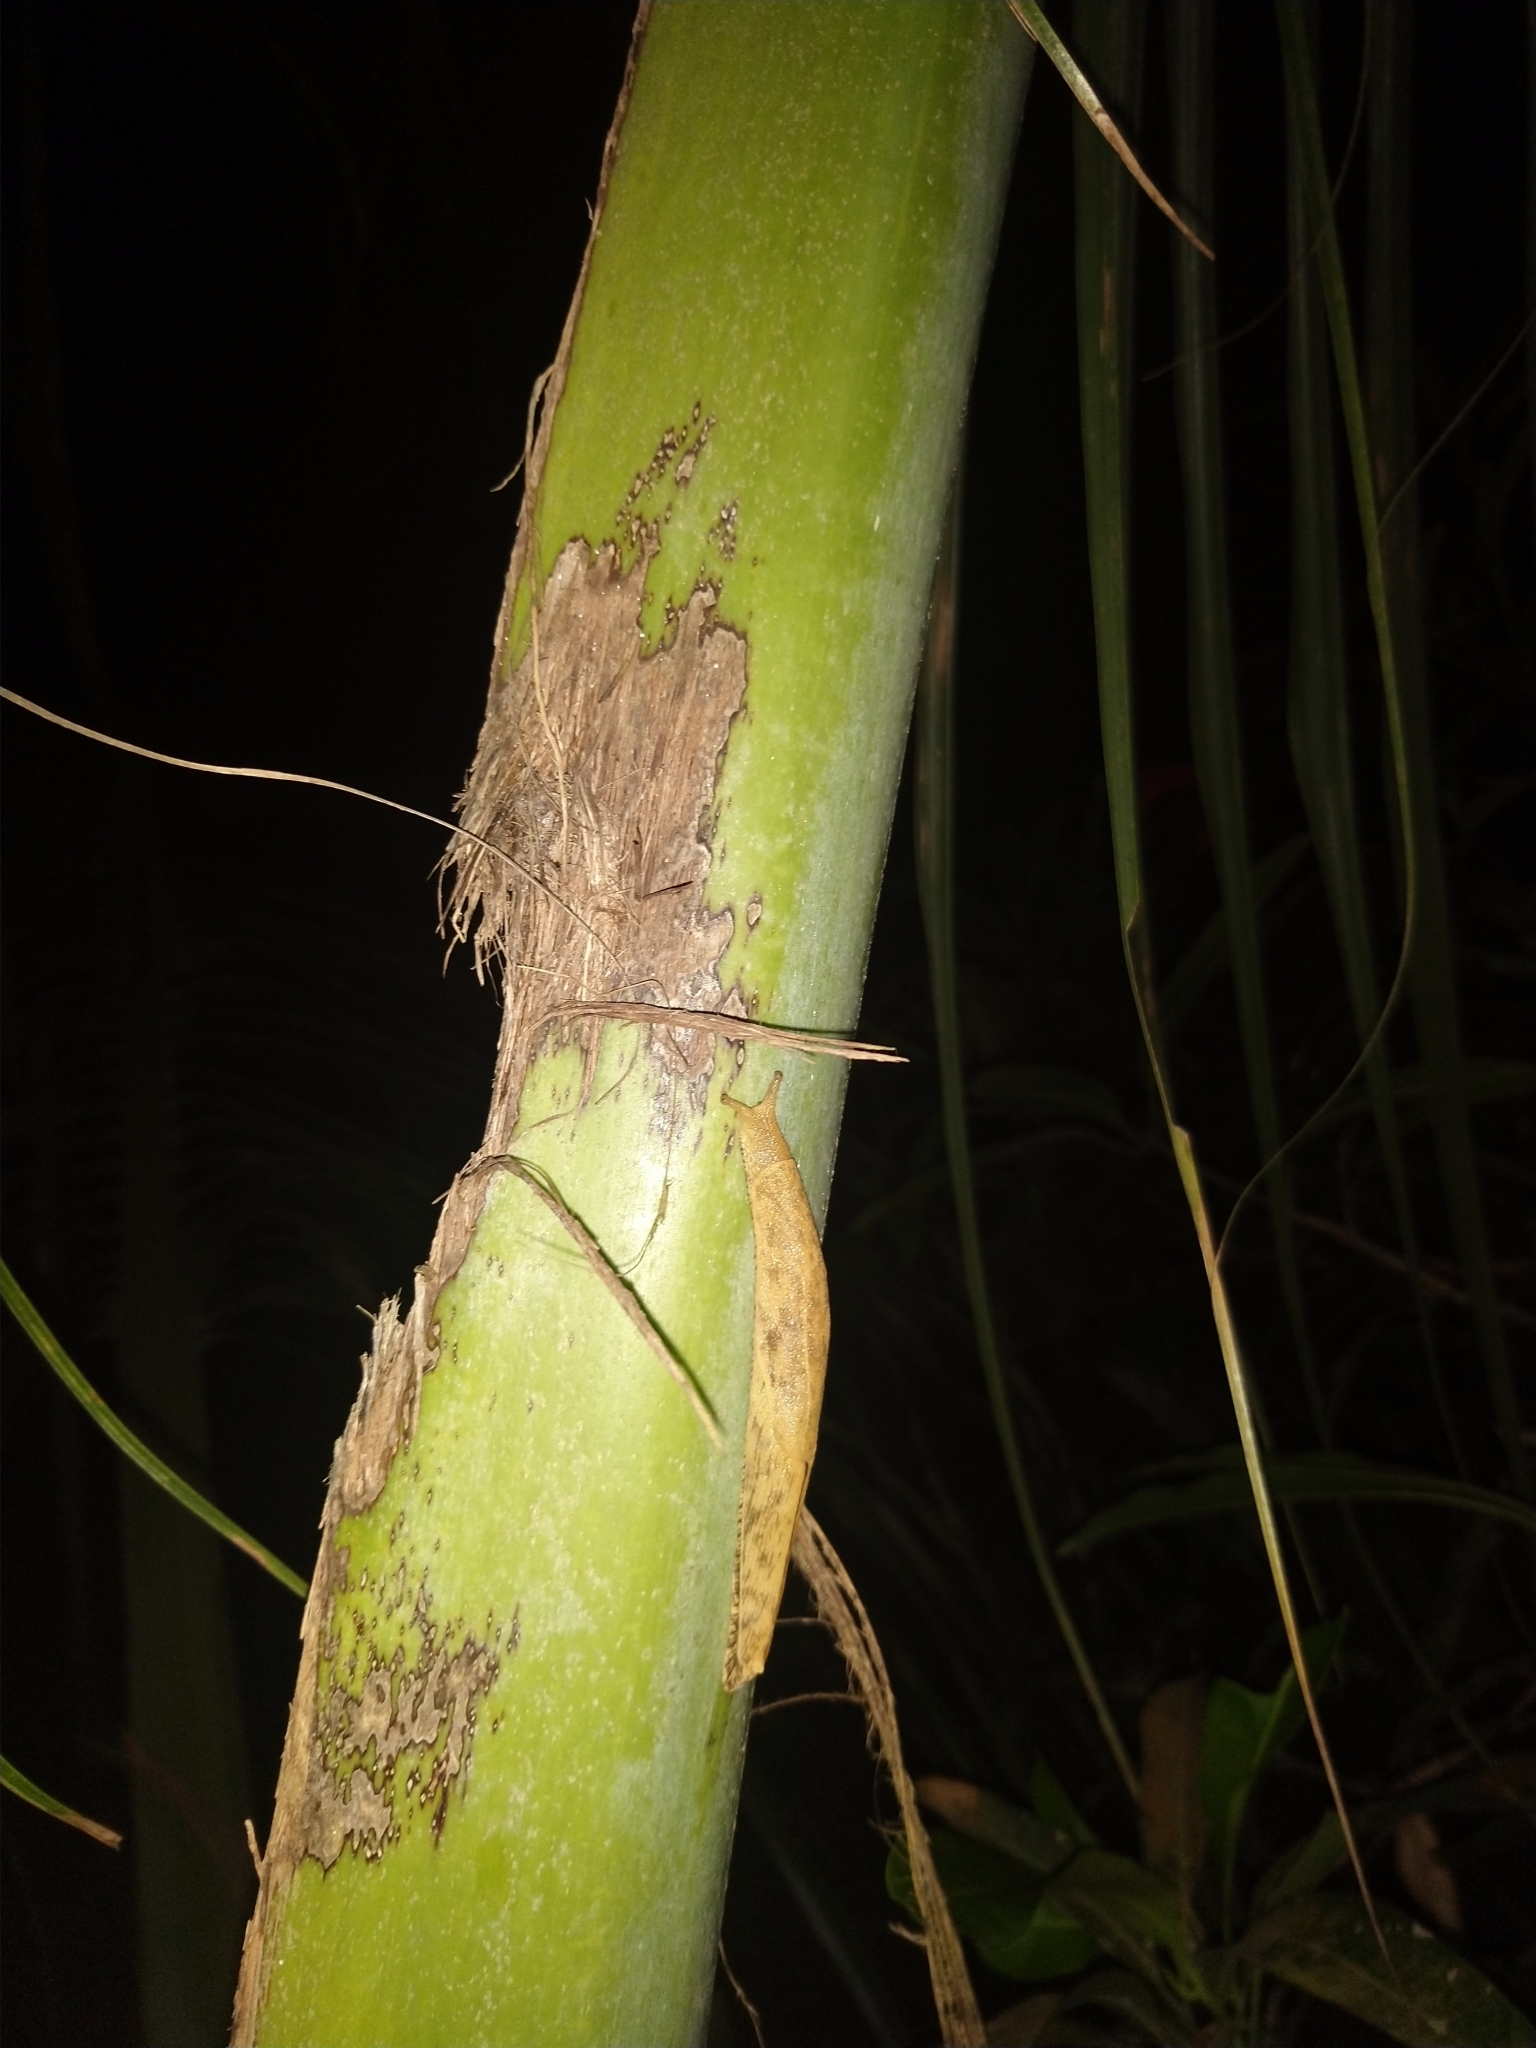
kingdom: Animalia
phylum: Mollusca
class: Gastropoda
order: Stylommatophora
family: Ariophantidae
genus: Mariaella
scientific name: Mariaella dussumieri
